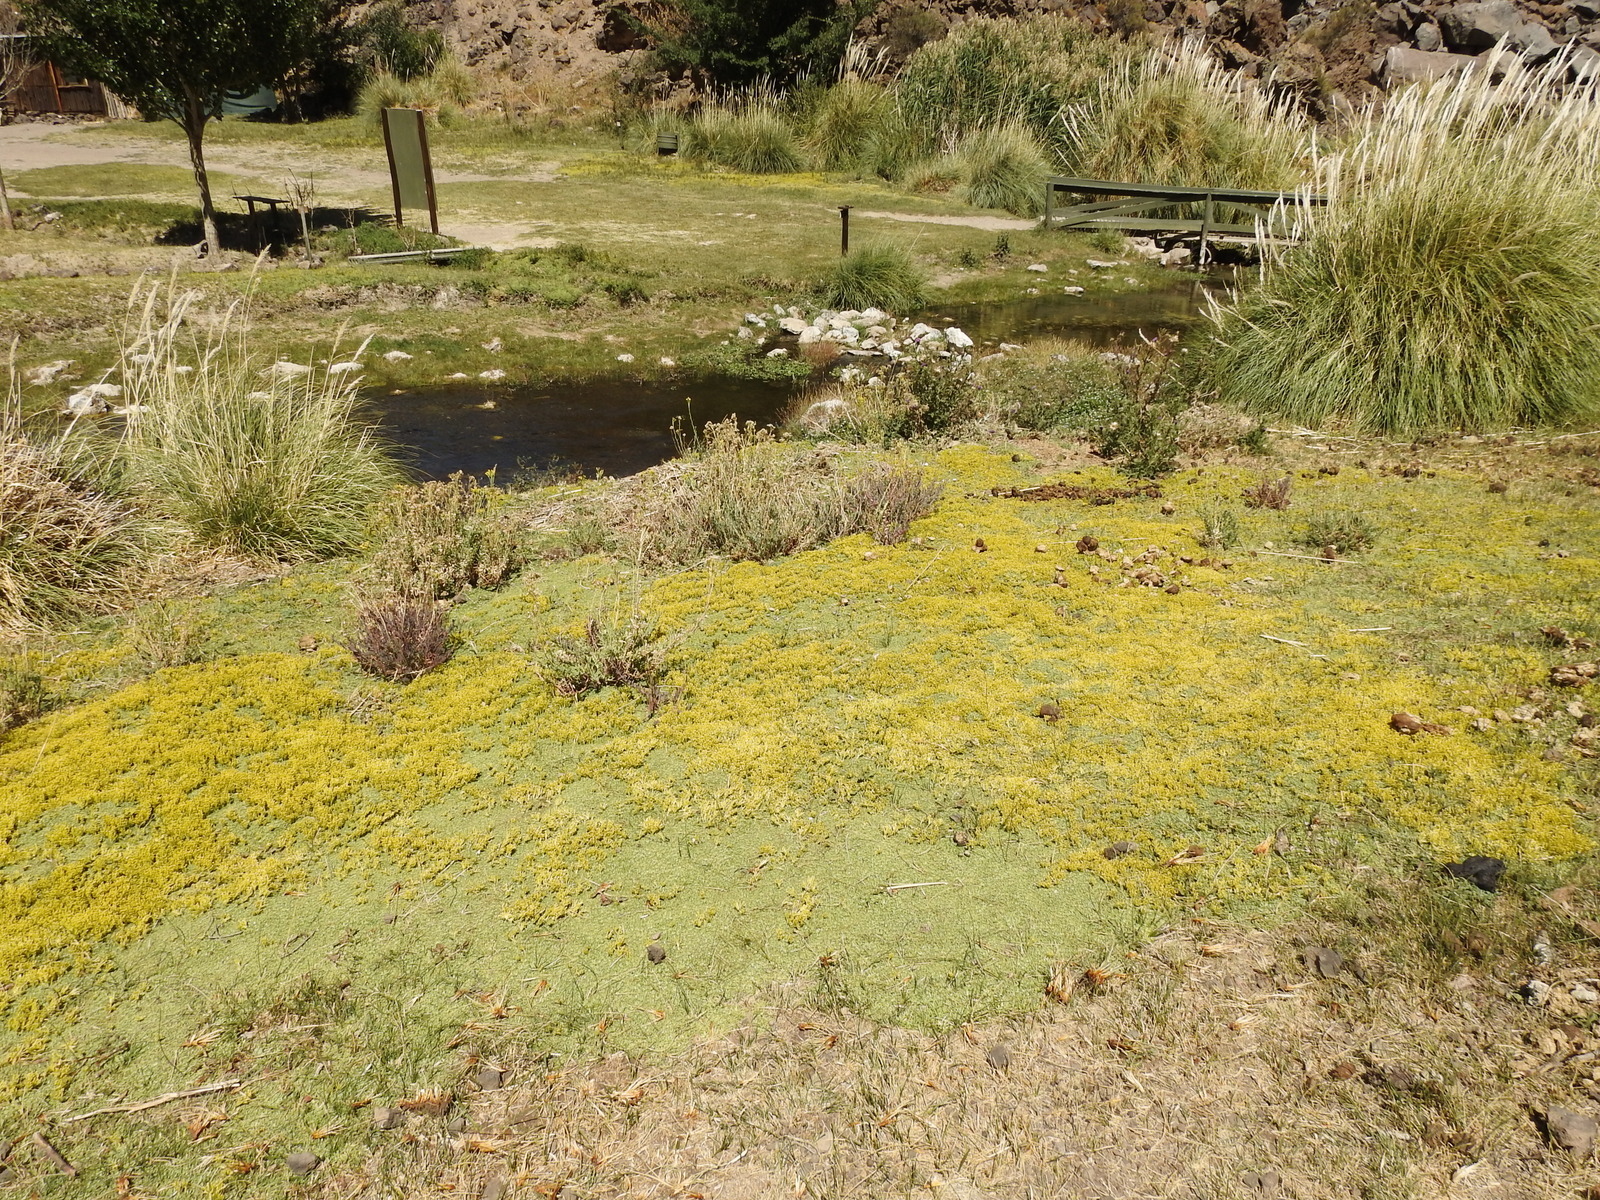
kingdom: Plantae
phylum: Tracheophyta
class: Magnoliopsida
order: Apiales
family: Apiaceae
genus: Azorella
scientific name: Azorella trifurcata
